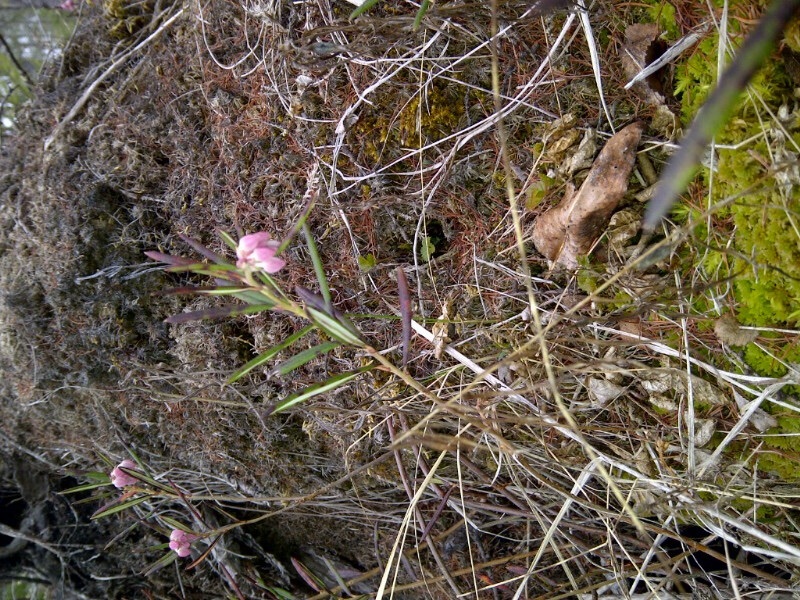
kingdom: Plantae
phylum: Tracheophyta
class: Magnoliopsida
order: Ericales
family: Ericaceae
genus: Andromeda
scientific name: Andromeda polifolia
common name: Bog-rosemary
